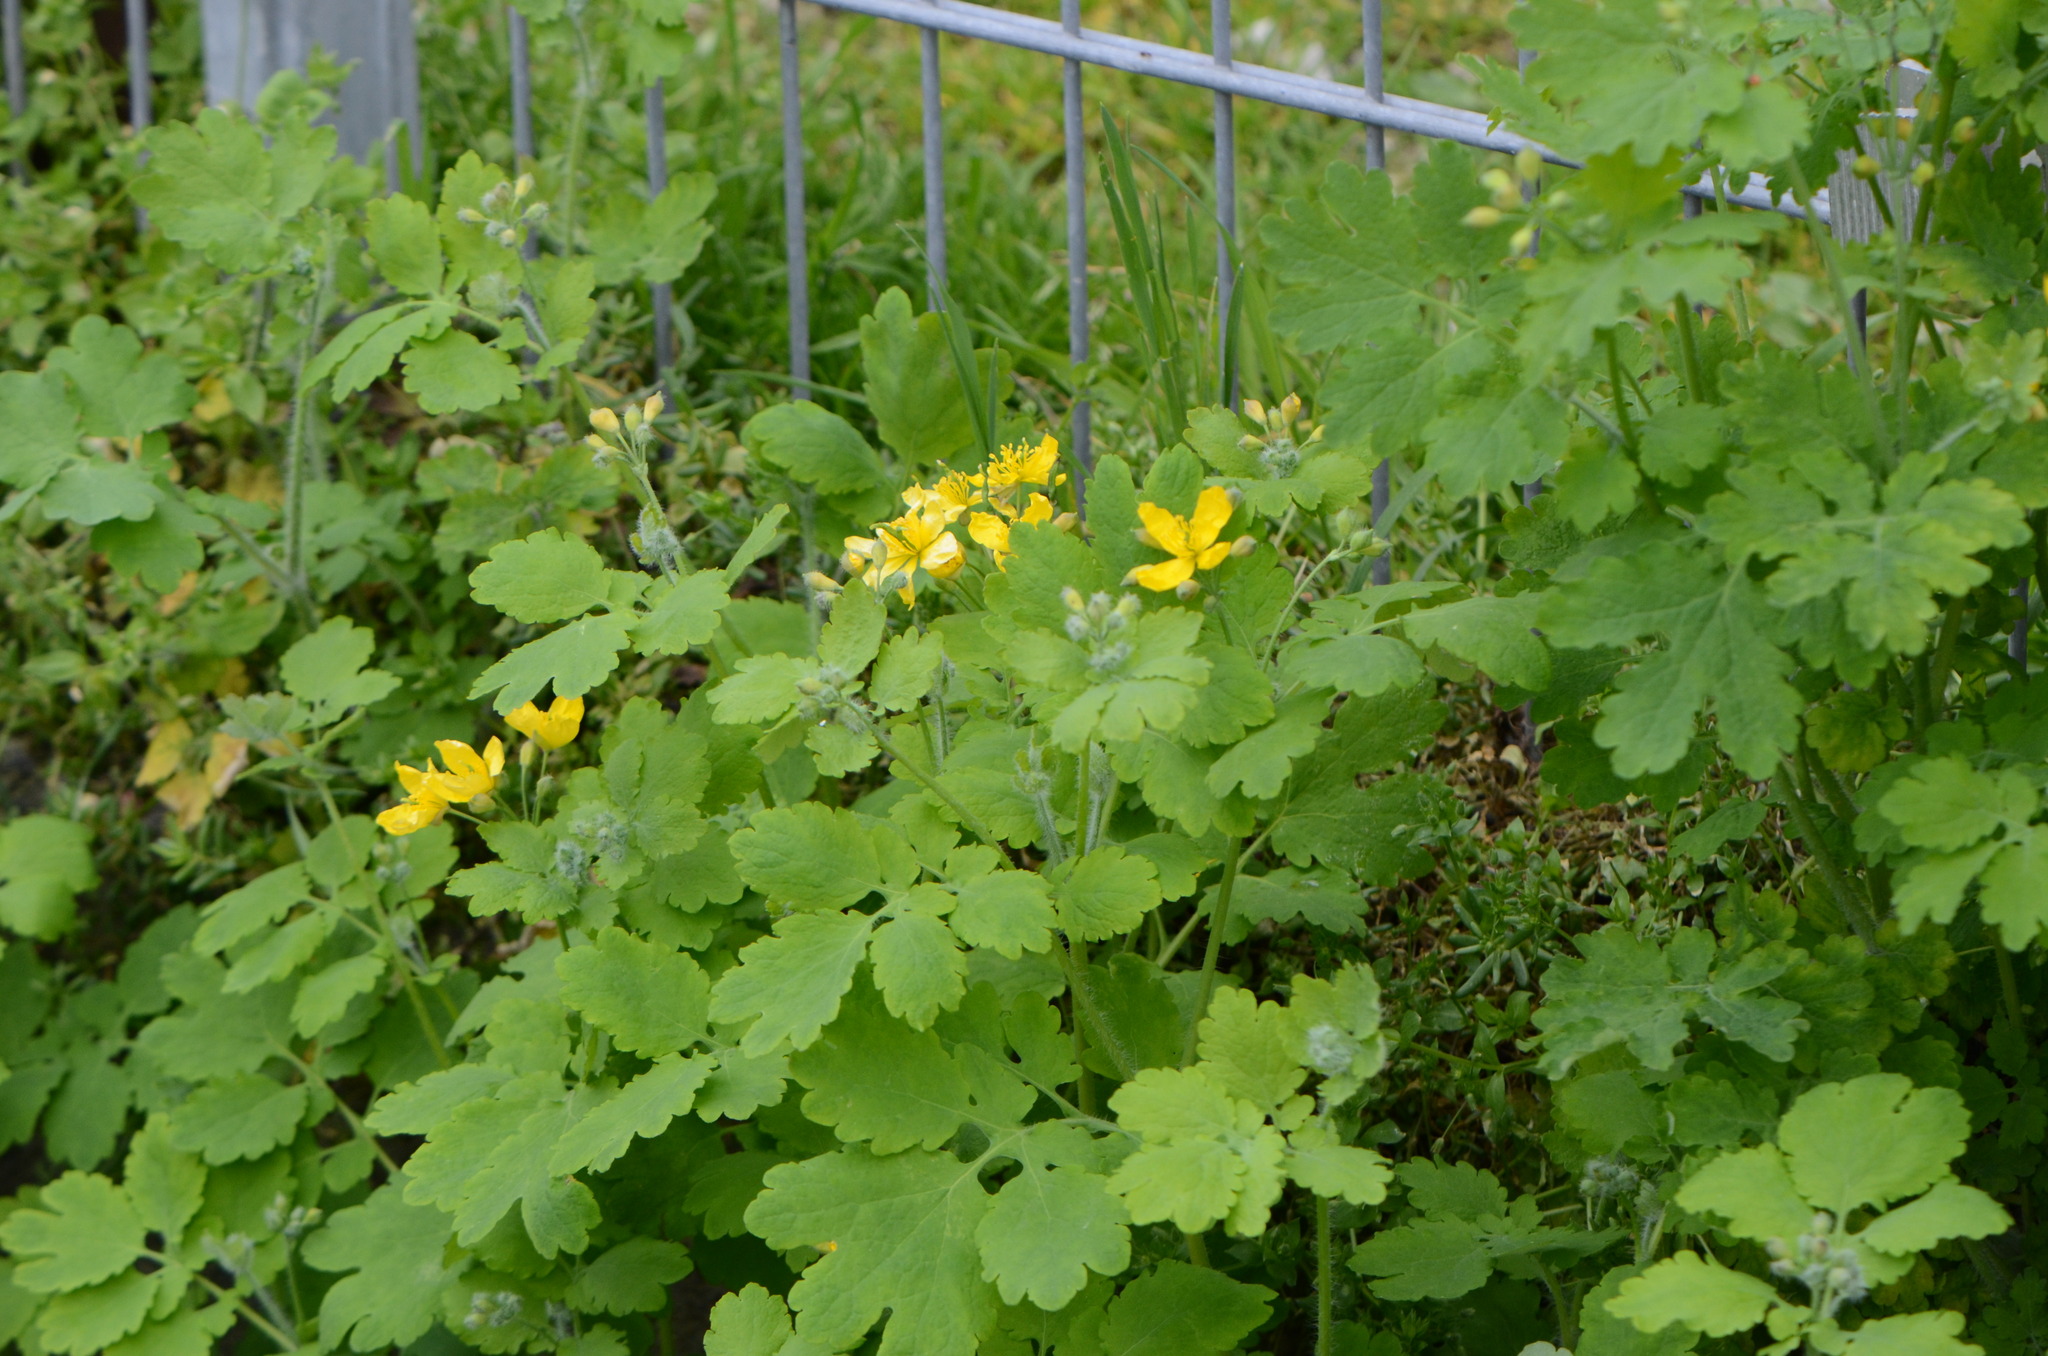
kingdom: Plantae
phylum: Tracheophyta
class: Magnoliopsida
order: Ranunculales
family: Papaveraceae
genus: Chelidonium
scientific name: Chelidonium majus
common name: Greater celandine
